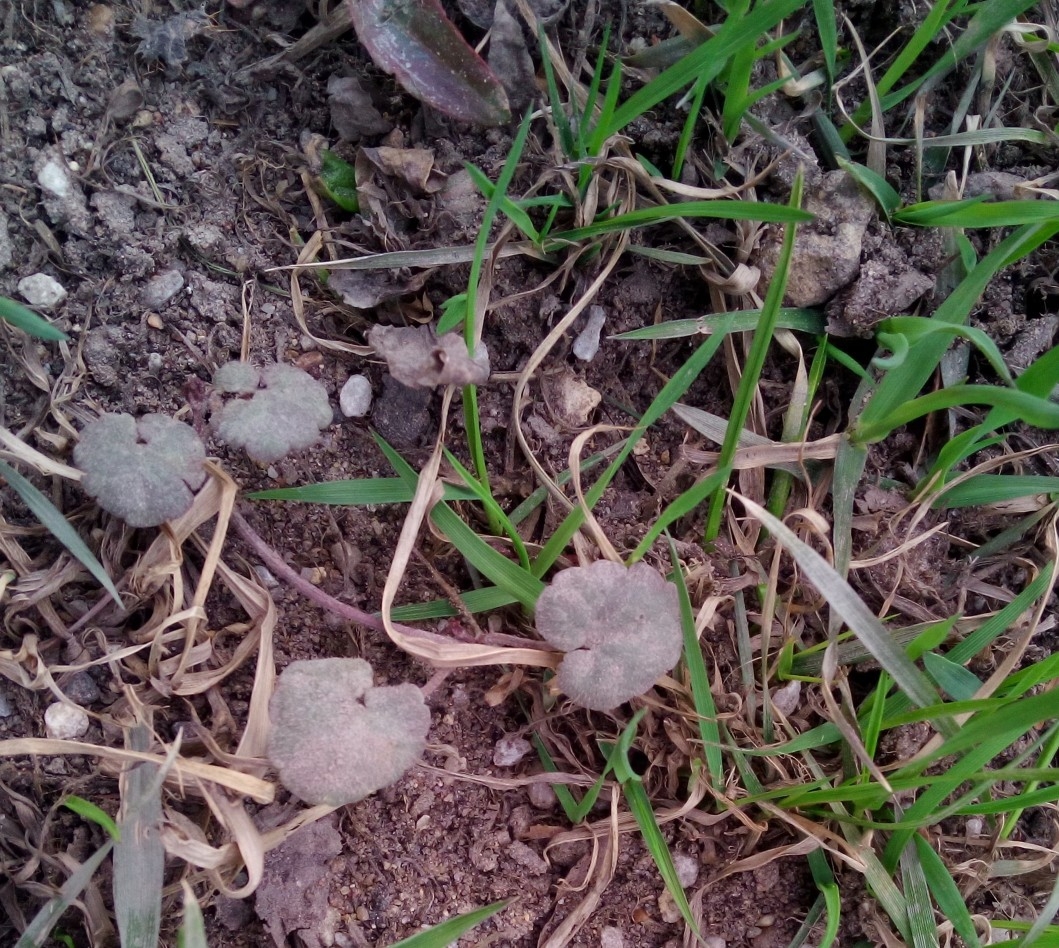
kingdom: Plantae
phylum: Tracheophyta
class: Magnoliopsida
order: Lamiales
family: Lamiaceae
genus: Glechoma
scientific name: Glechoma hederacea
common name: Ground ivy
